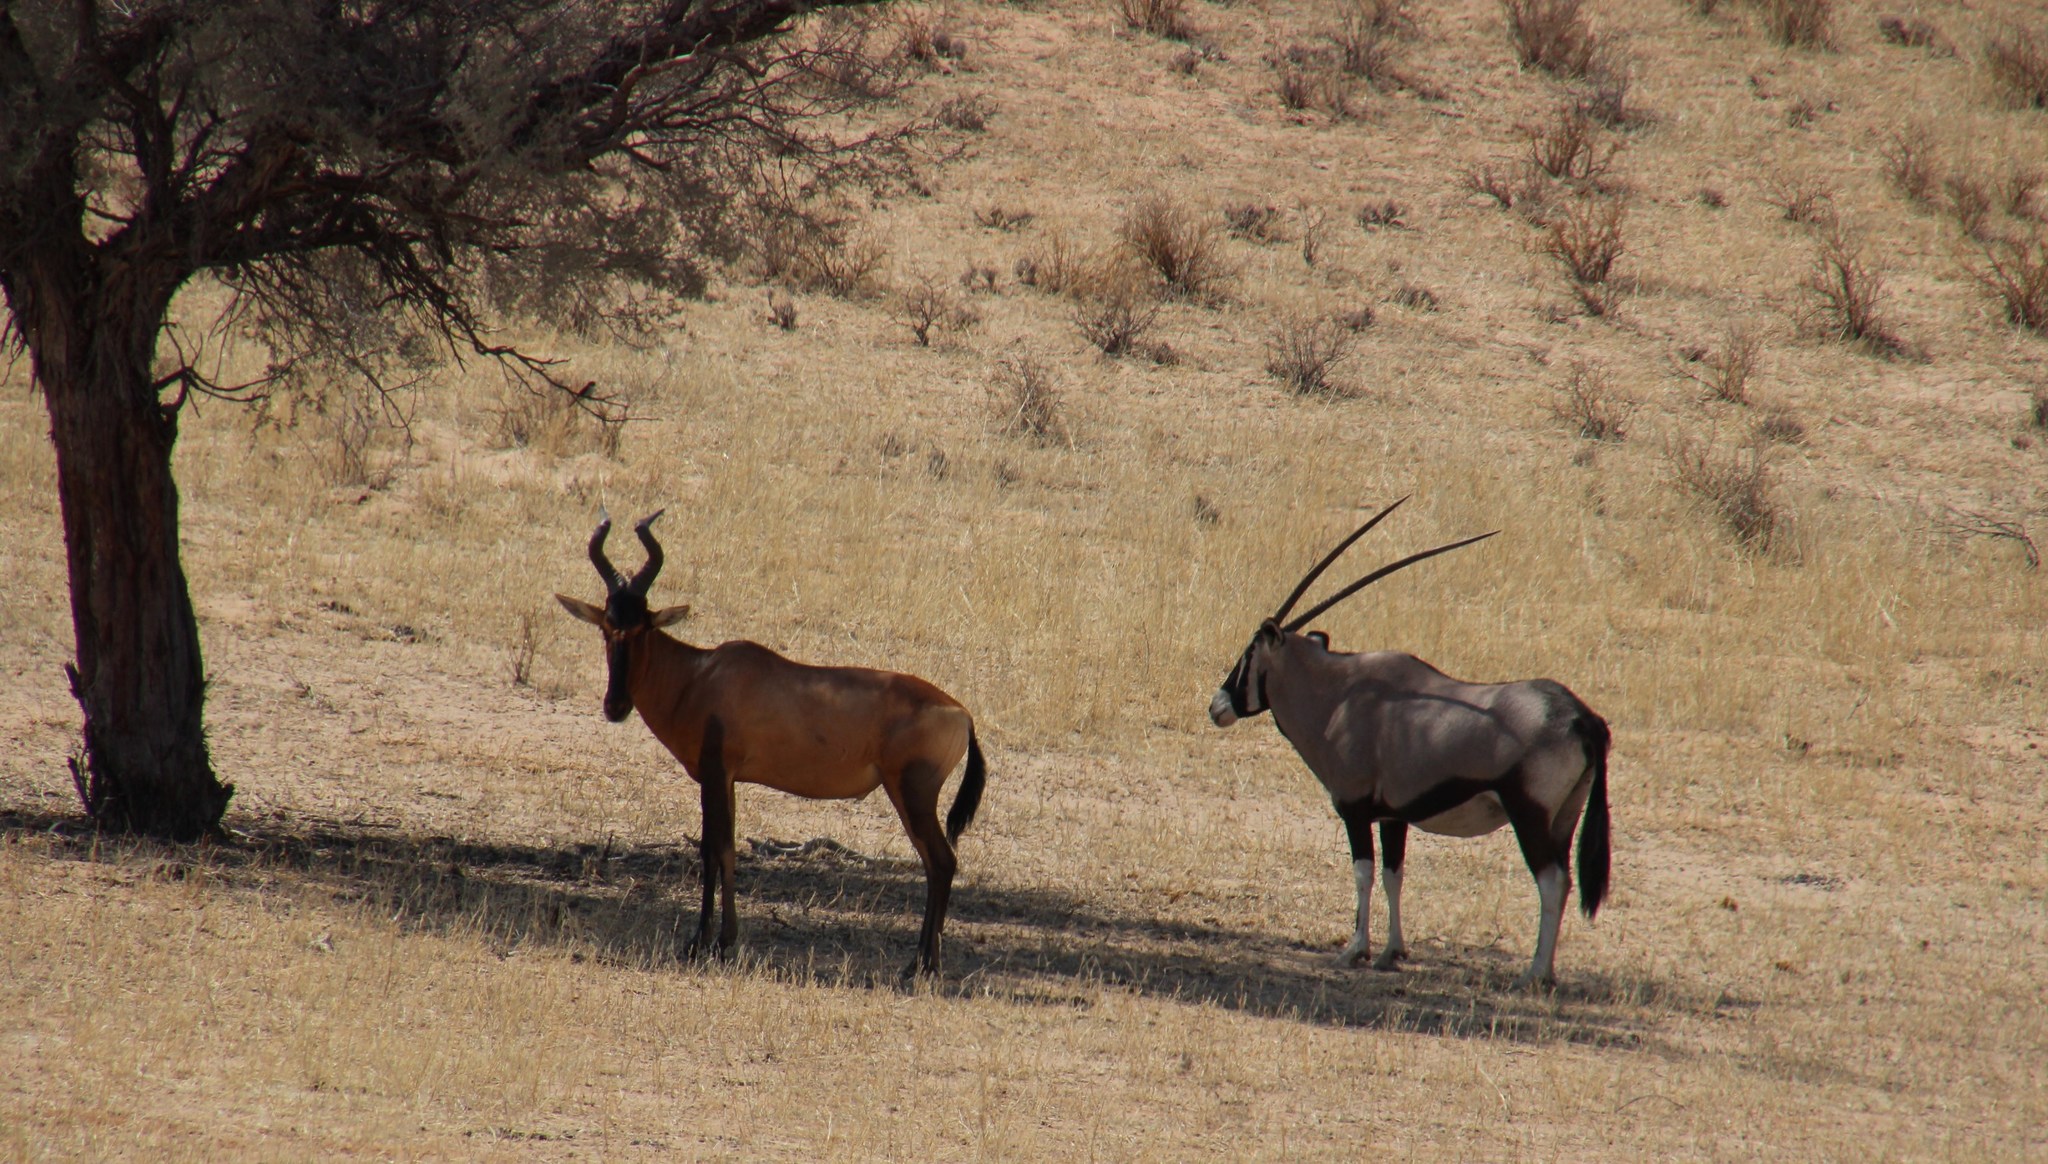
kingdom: Animalia
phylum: Chordata
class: Mammalia
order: Artiodactyla
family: Bovidae
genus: Alcelaphus
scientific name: Alcelaphus caama
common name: Red hartebeest
